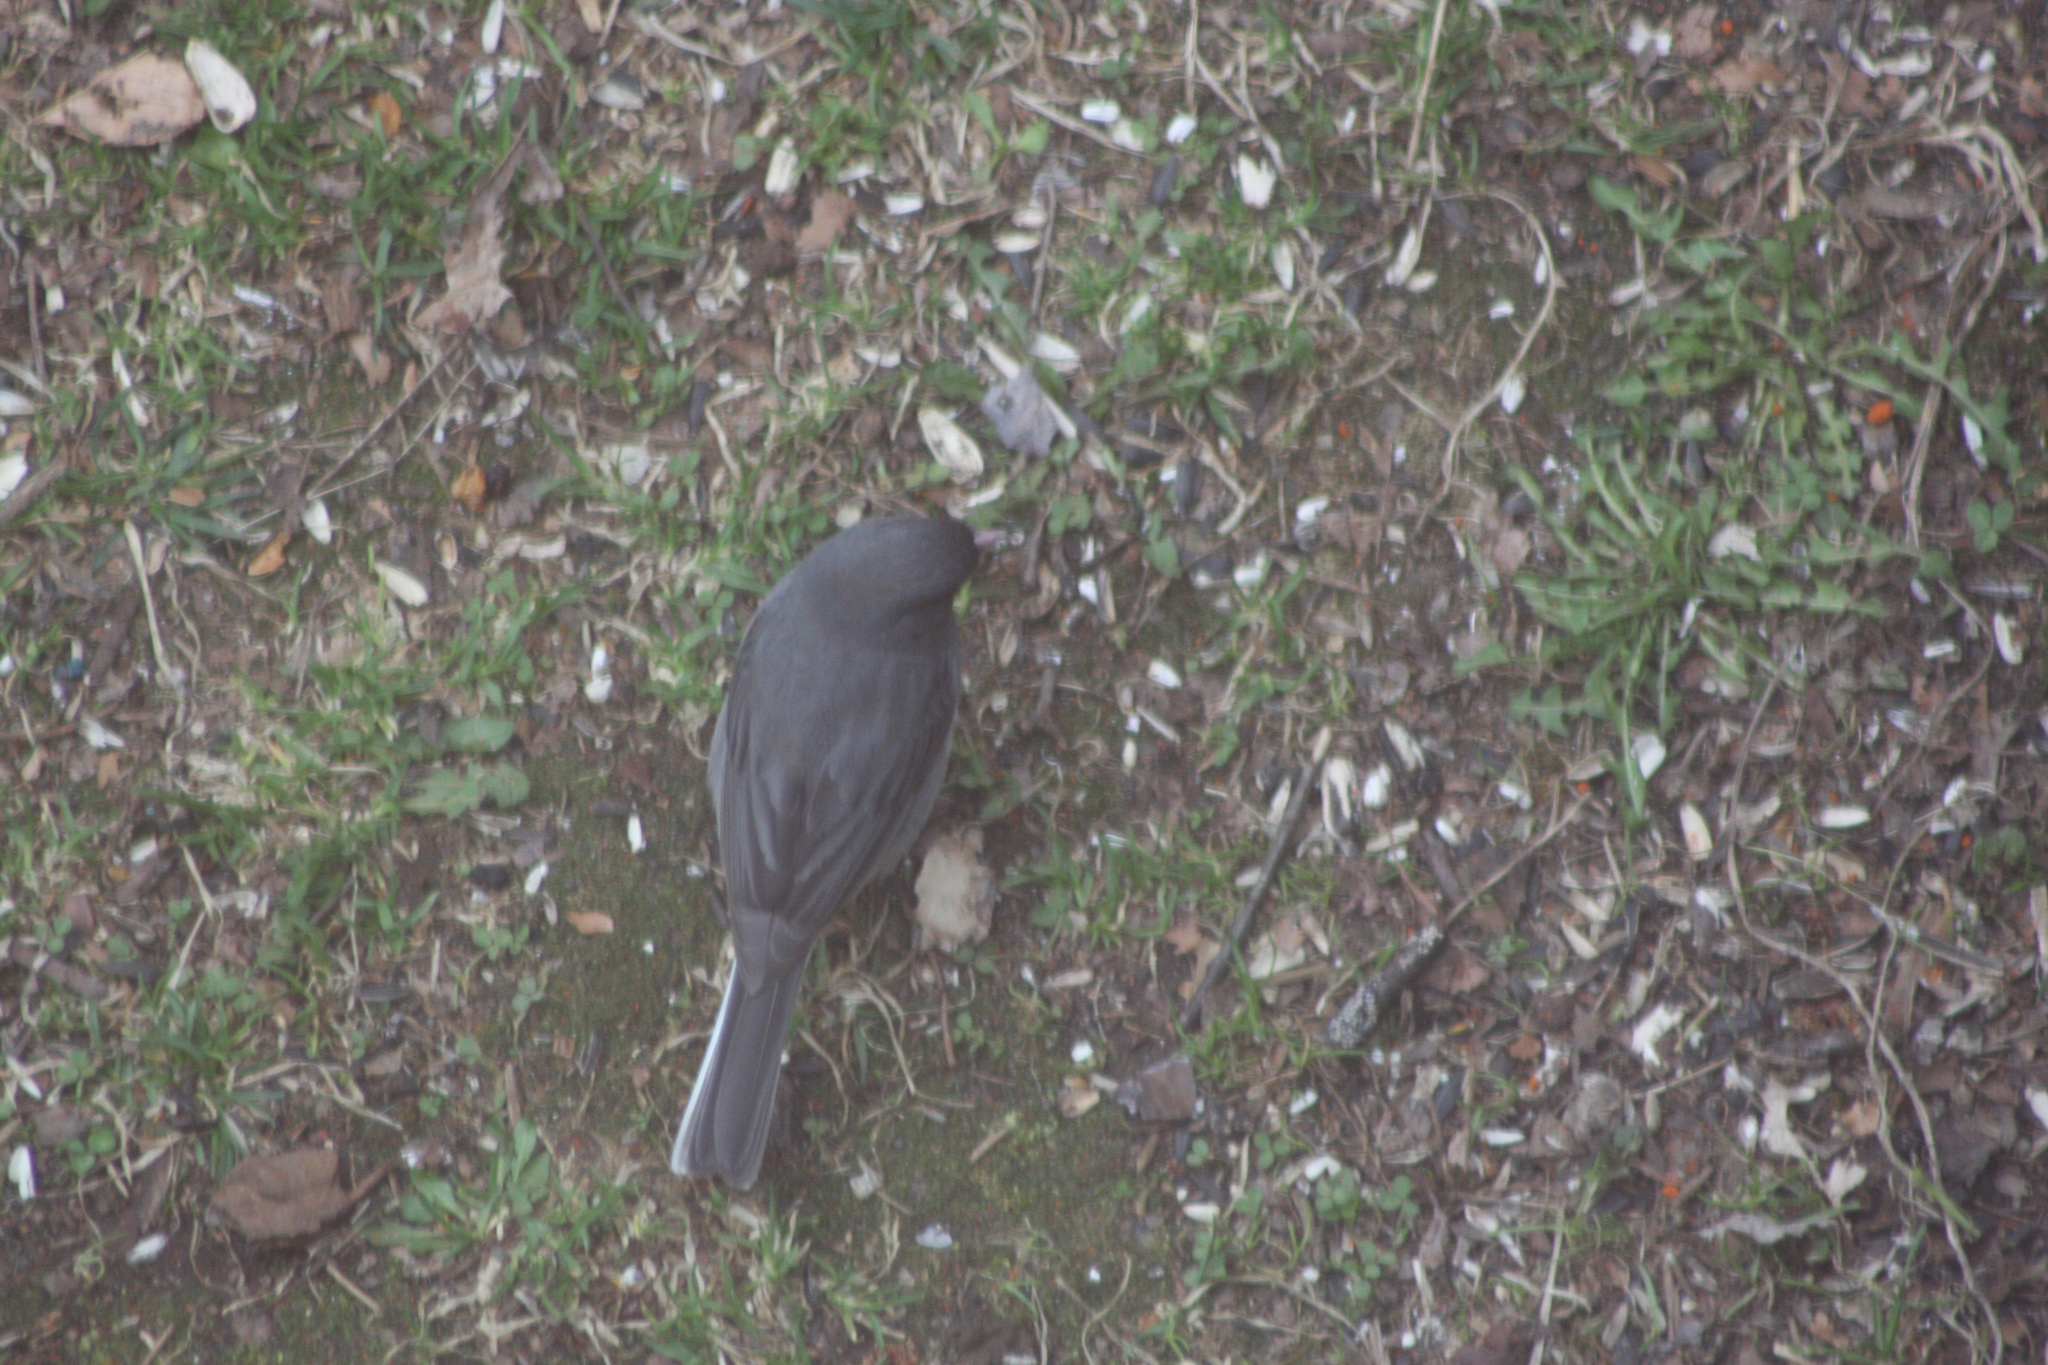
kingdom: Animalia
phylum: Chordata
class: Aves
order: Passeriformes
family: Passerellidae
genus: Junco
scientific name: Junco hyemalis
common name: Dark-eyed junco
